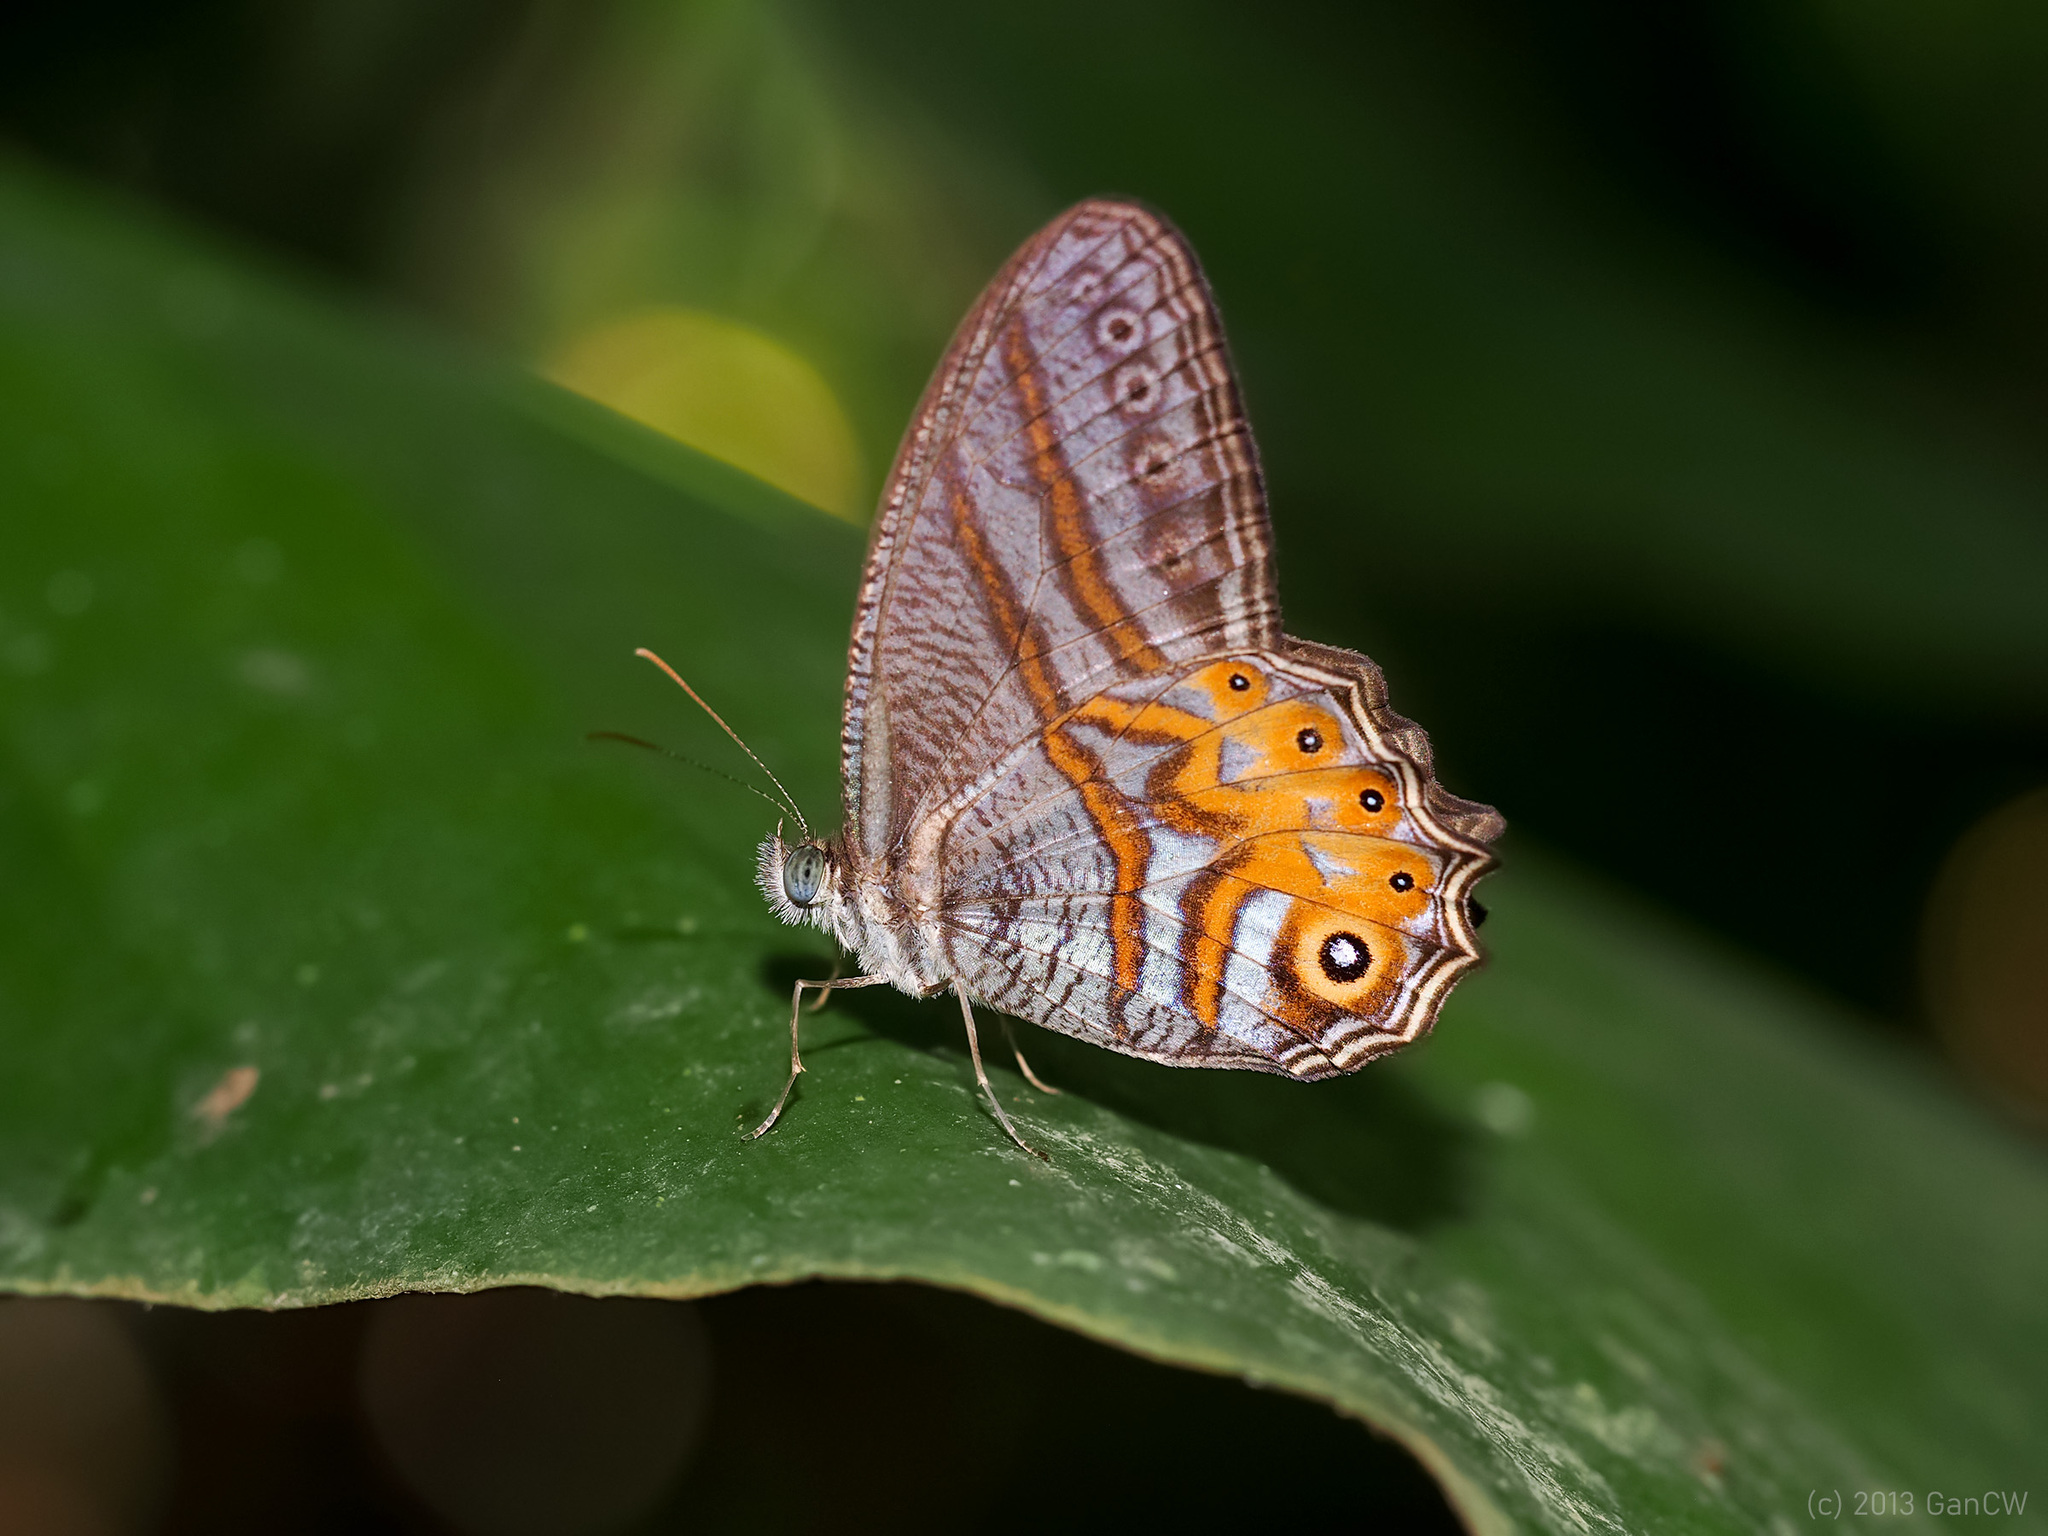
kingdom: Animalia
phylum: Arthropoda
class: Insecta
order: Lepidoptera
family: Nymphalidae
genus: Erites
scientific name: Erites elegans
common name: Elegent cyclops
